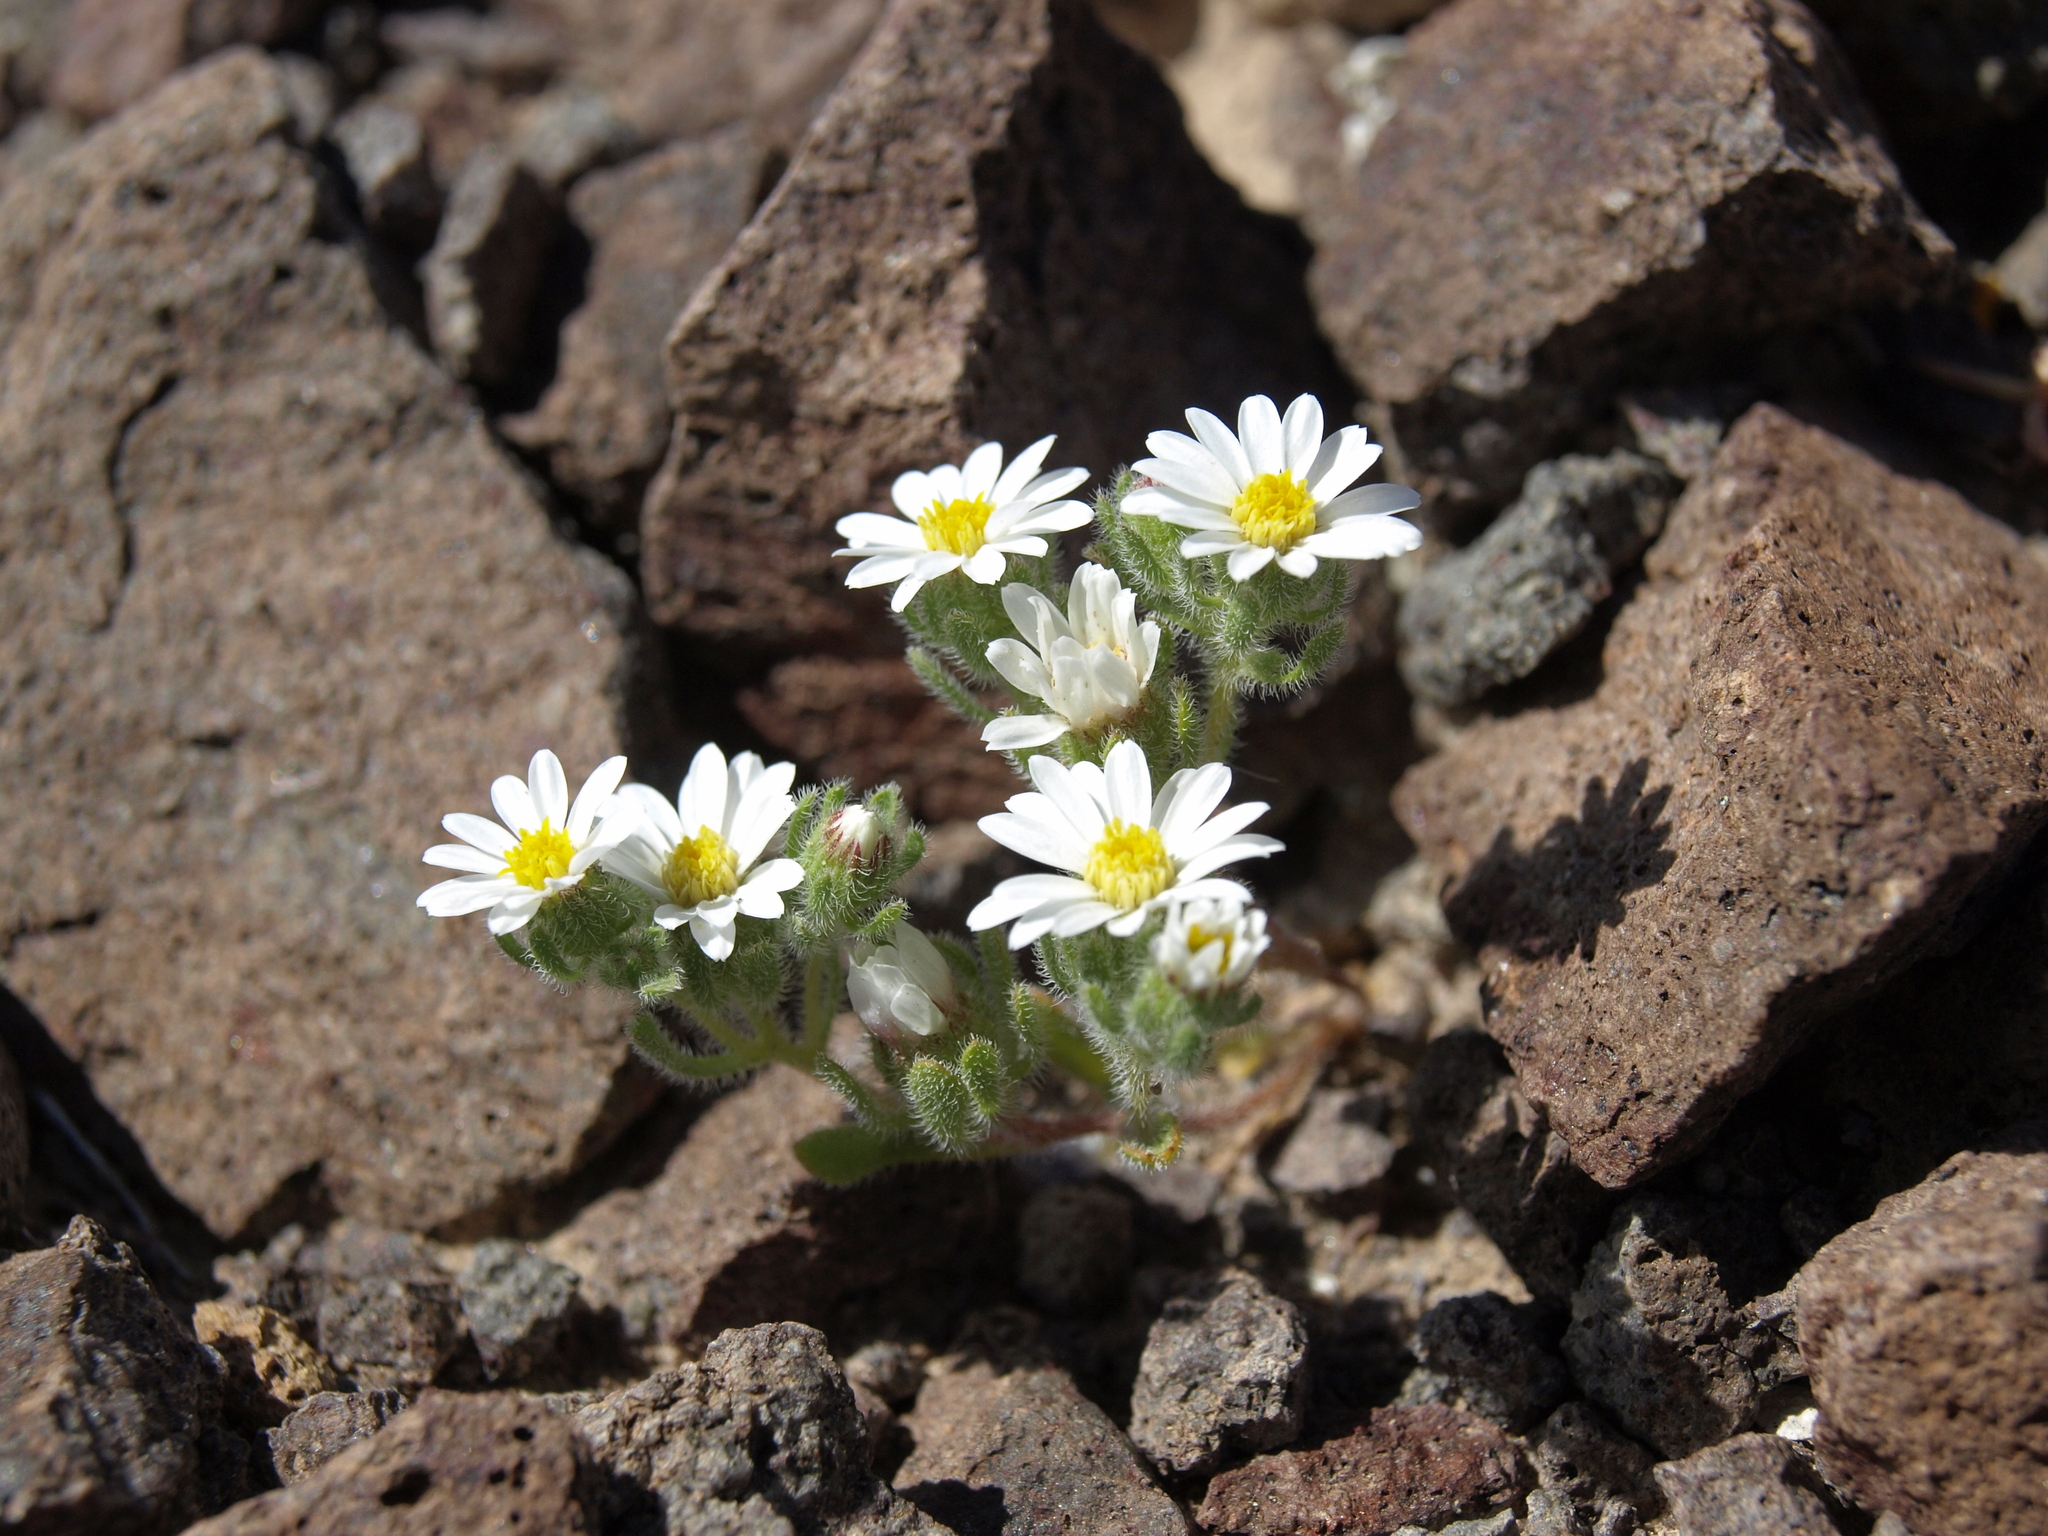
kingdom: Plantae
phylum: Tracheophyta
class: Magnoliopsida
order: Asterales
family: Asteraceae
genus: Monoptilon
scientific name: Monoptilon bellidiforme
